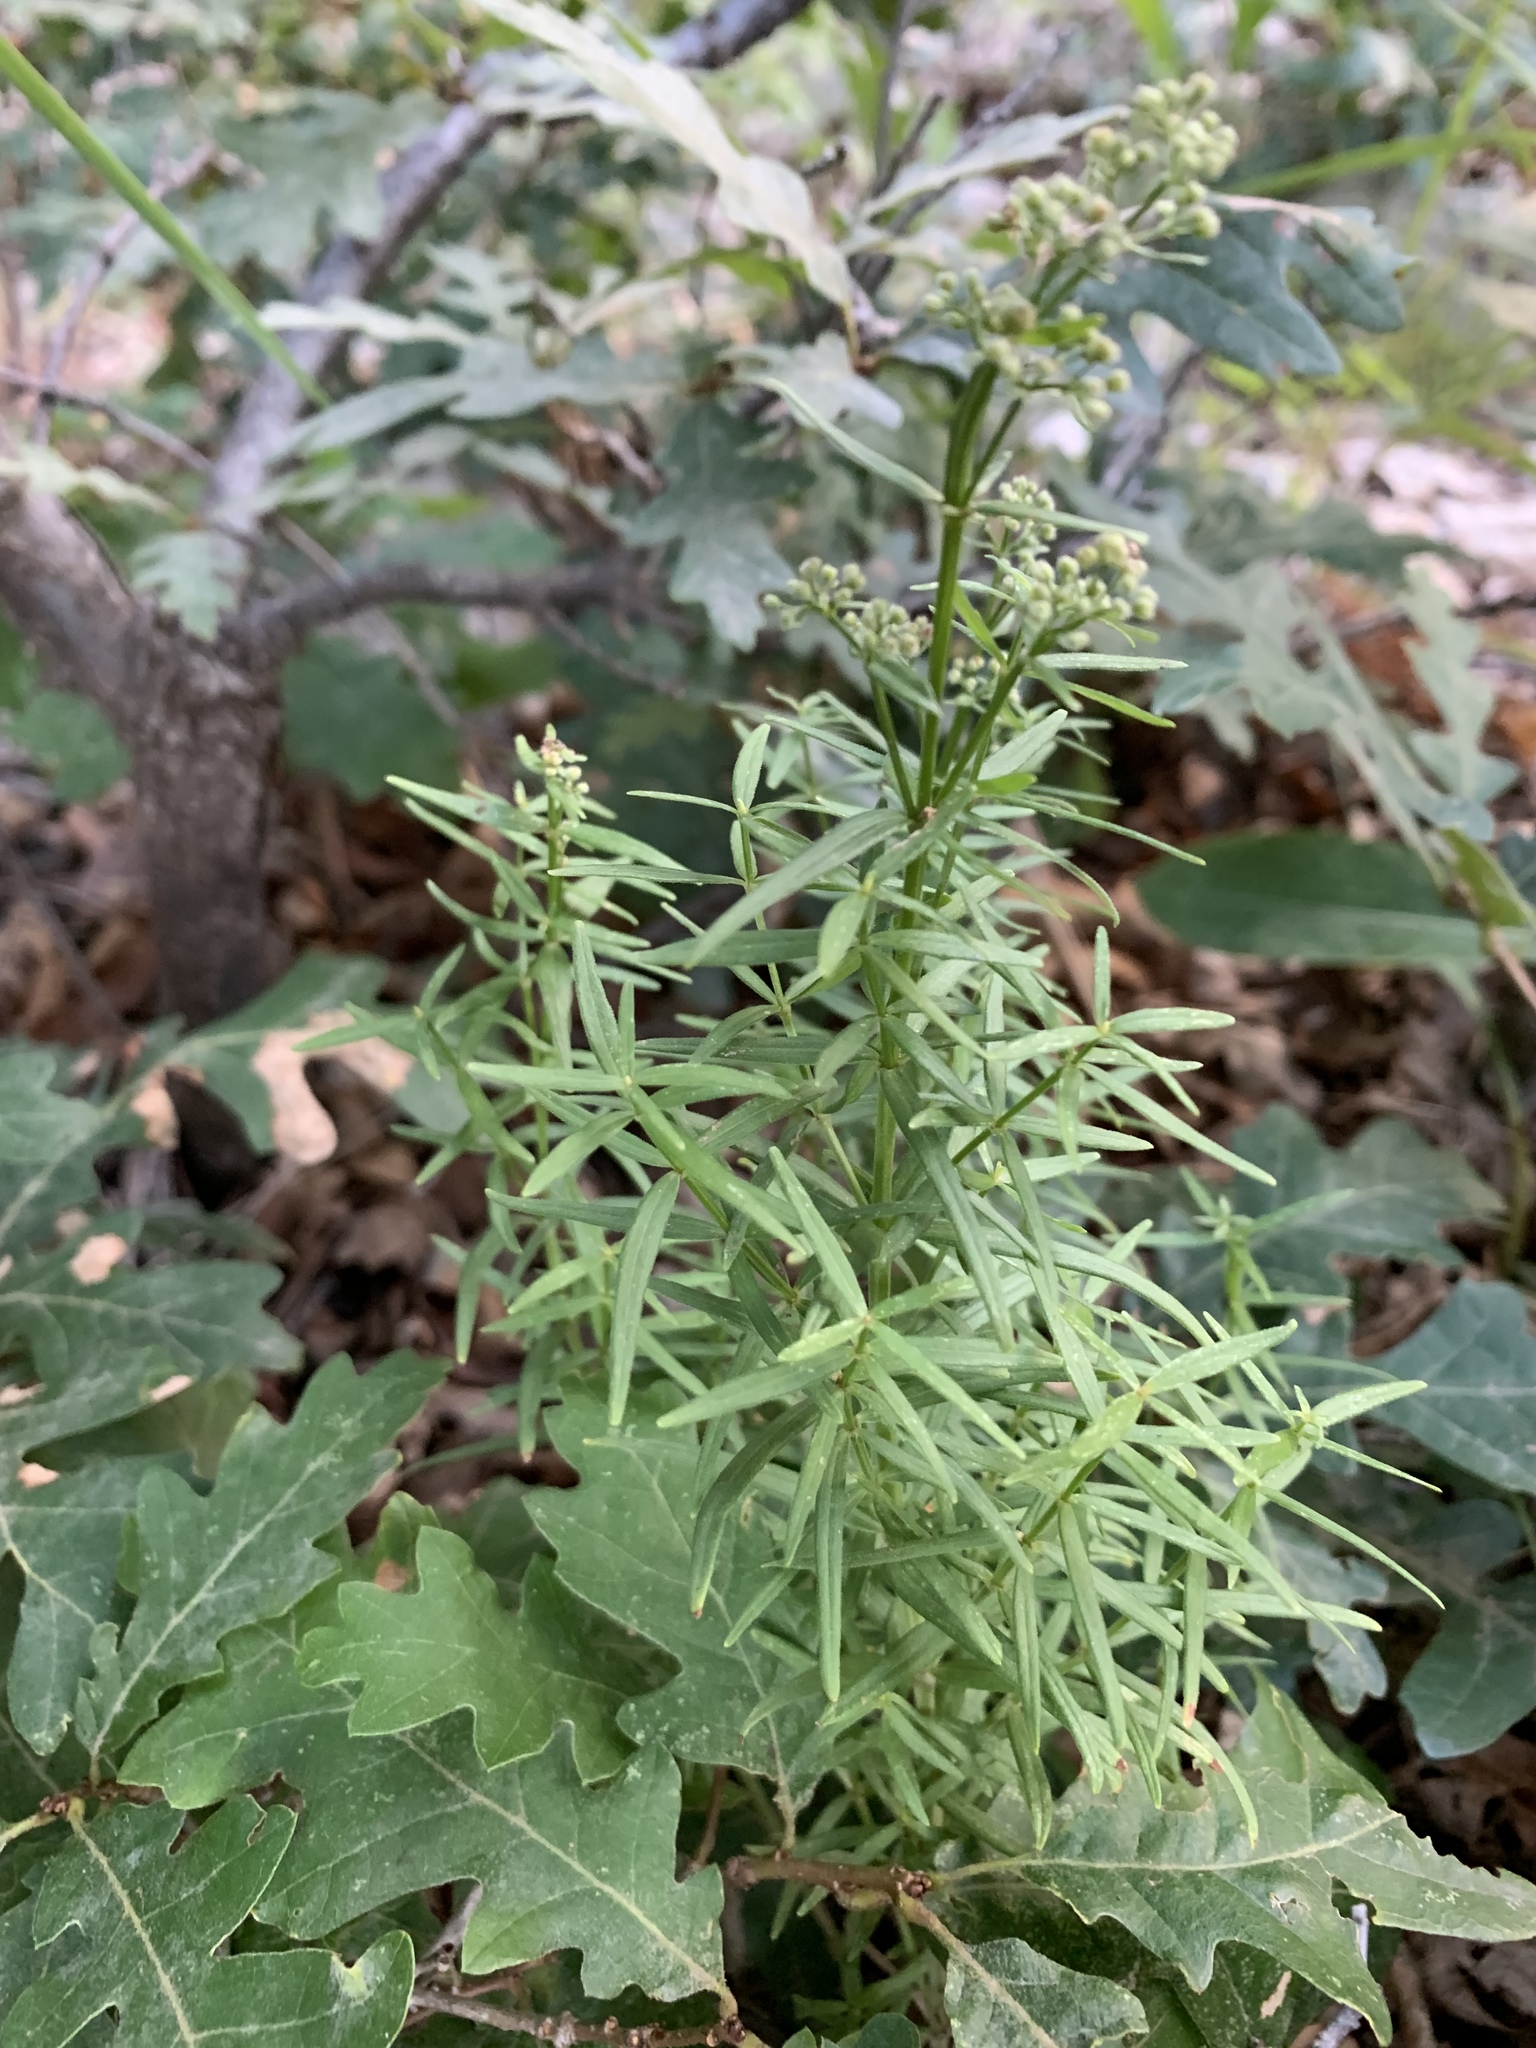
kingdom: Plantae
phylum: Tracheophyta
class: Magnoliopsida
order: Gentianales
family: Rubiaceae
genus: Galium
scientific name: Galium boreale
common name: Northern bedstraw
